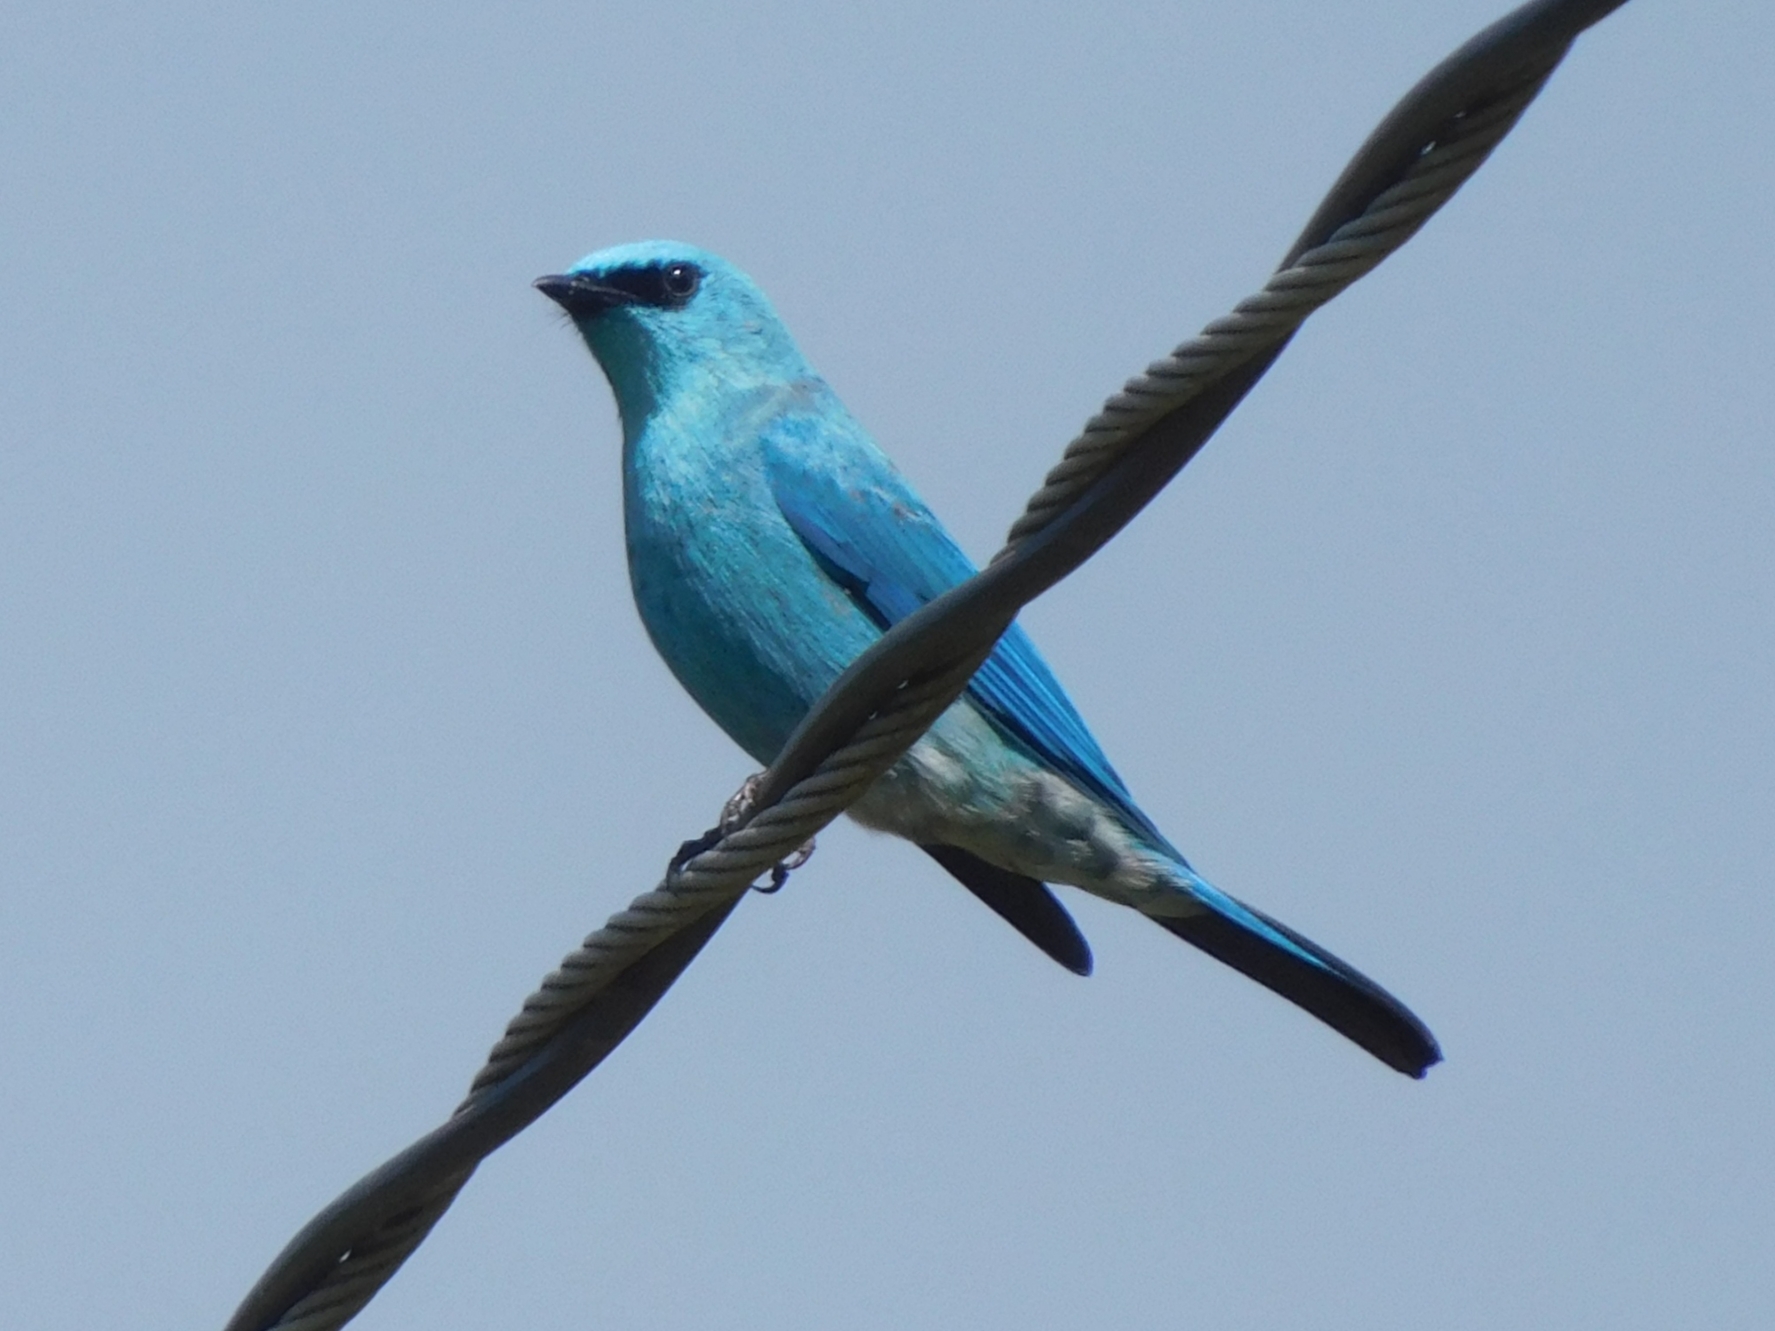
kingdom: Animalia
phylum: Chordata
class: Aves
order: Passeriformes
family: Muscicapidae
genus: Eumyias
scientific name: Eumyias thalassinus
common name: Verditer flycatcher
